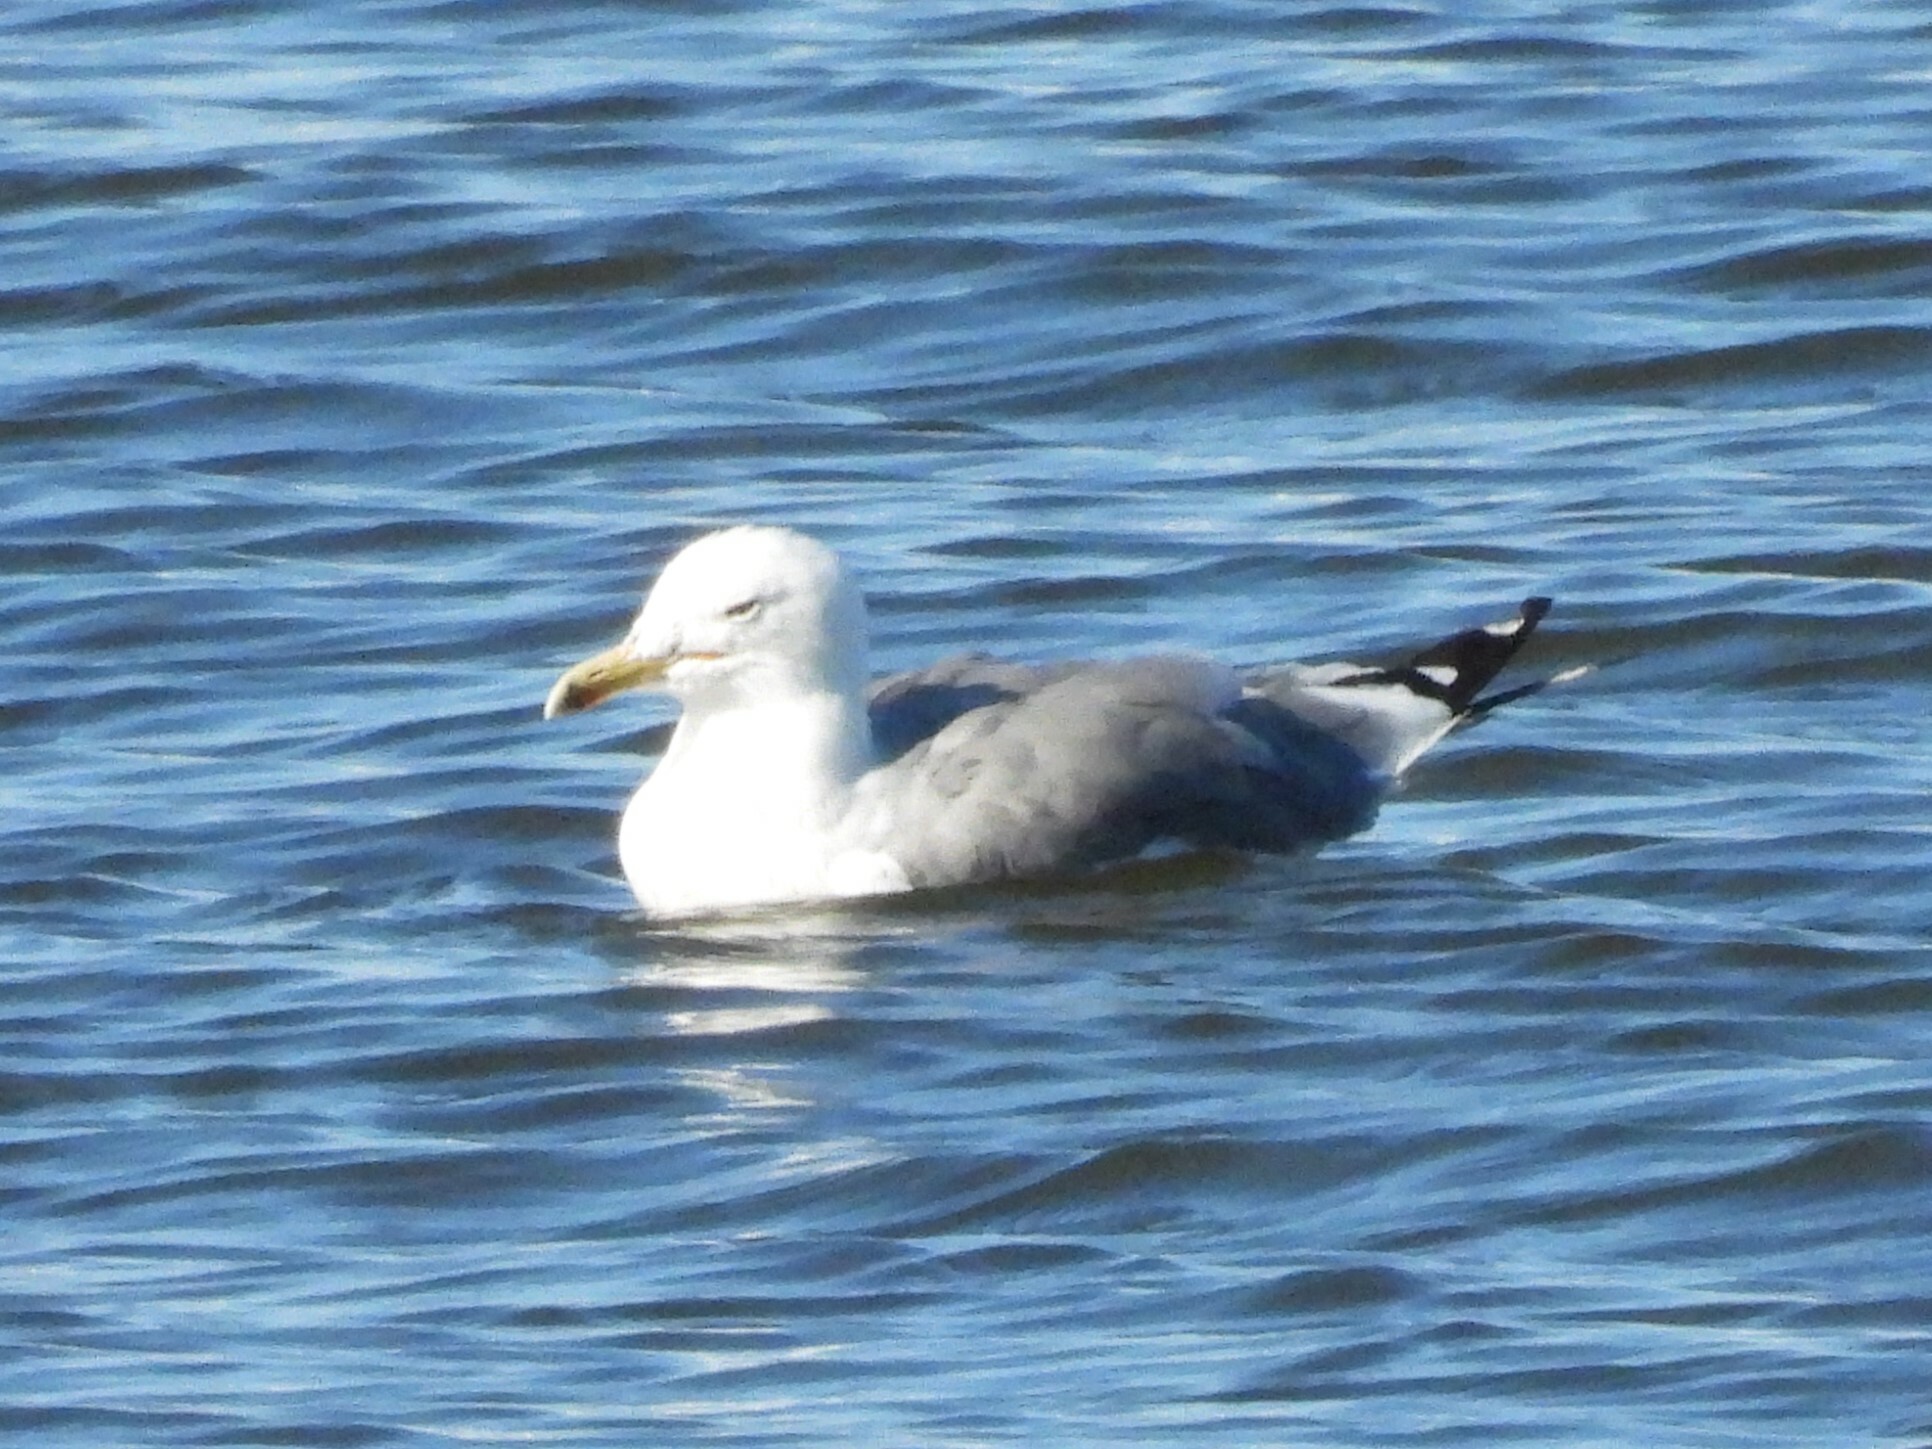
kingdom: Animalia
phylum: Chordata
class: Aves
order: Charadriiformes
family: Laridae
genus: Larus
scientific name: Larus californicus
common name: California gull
